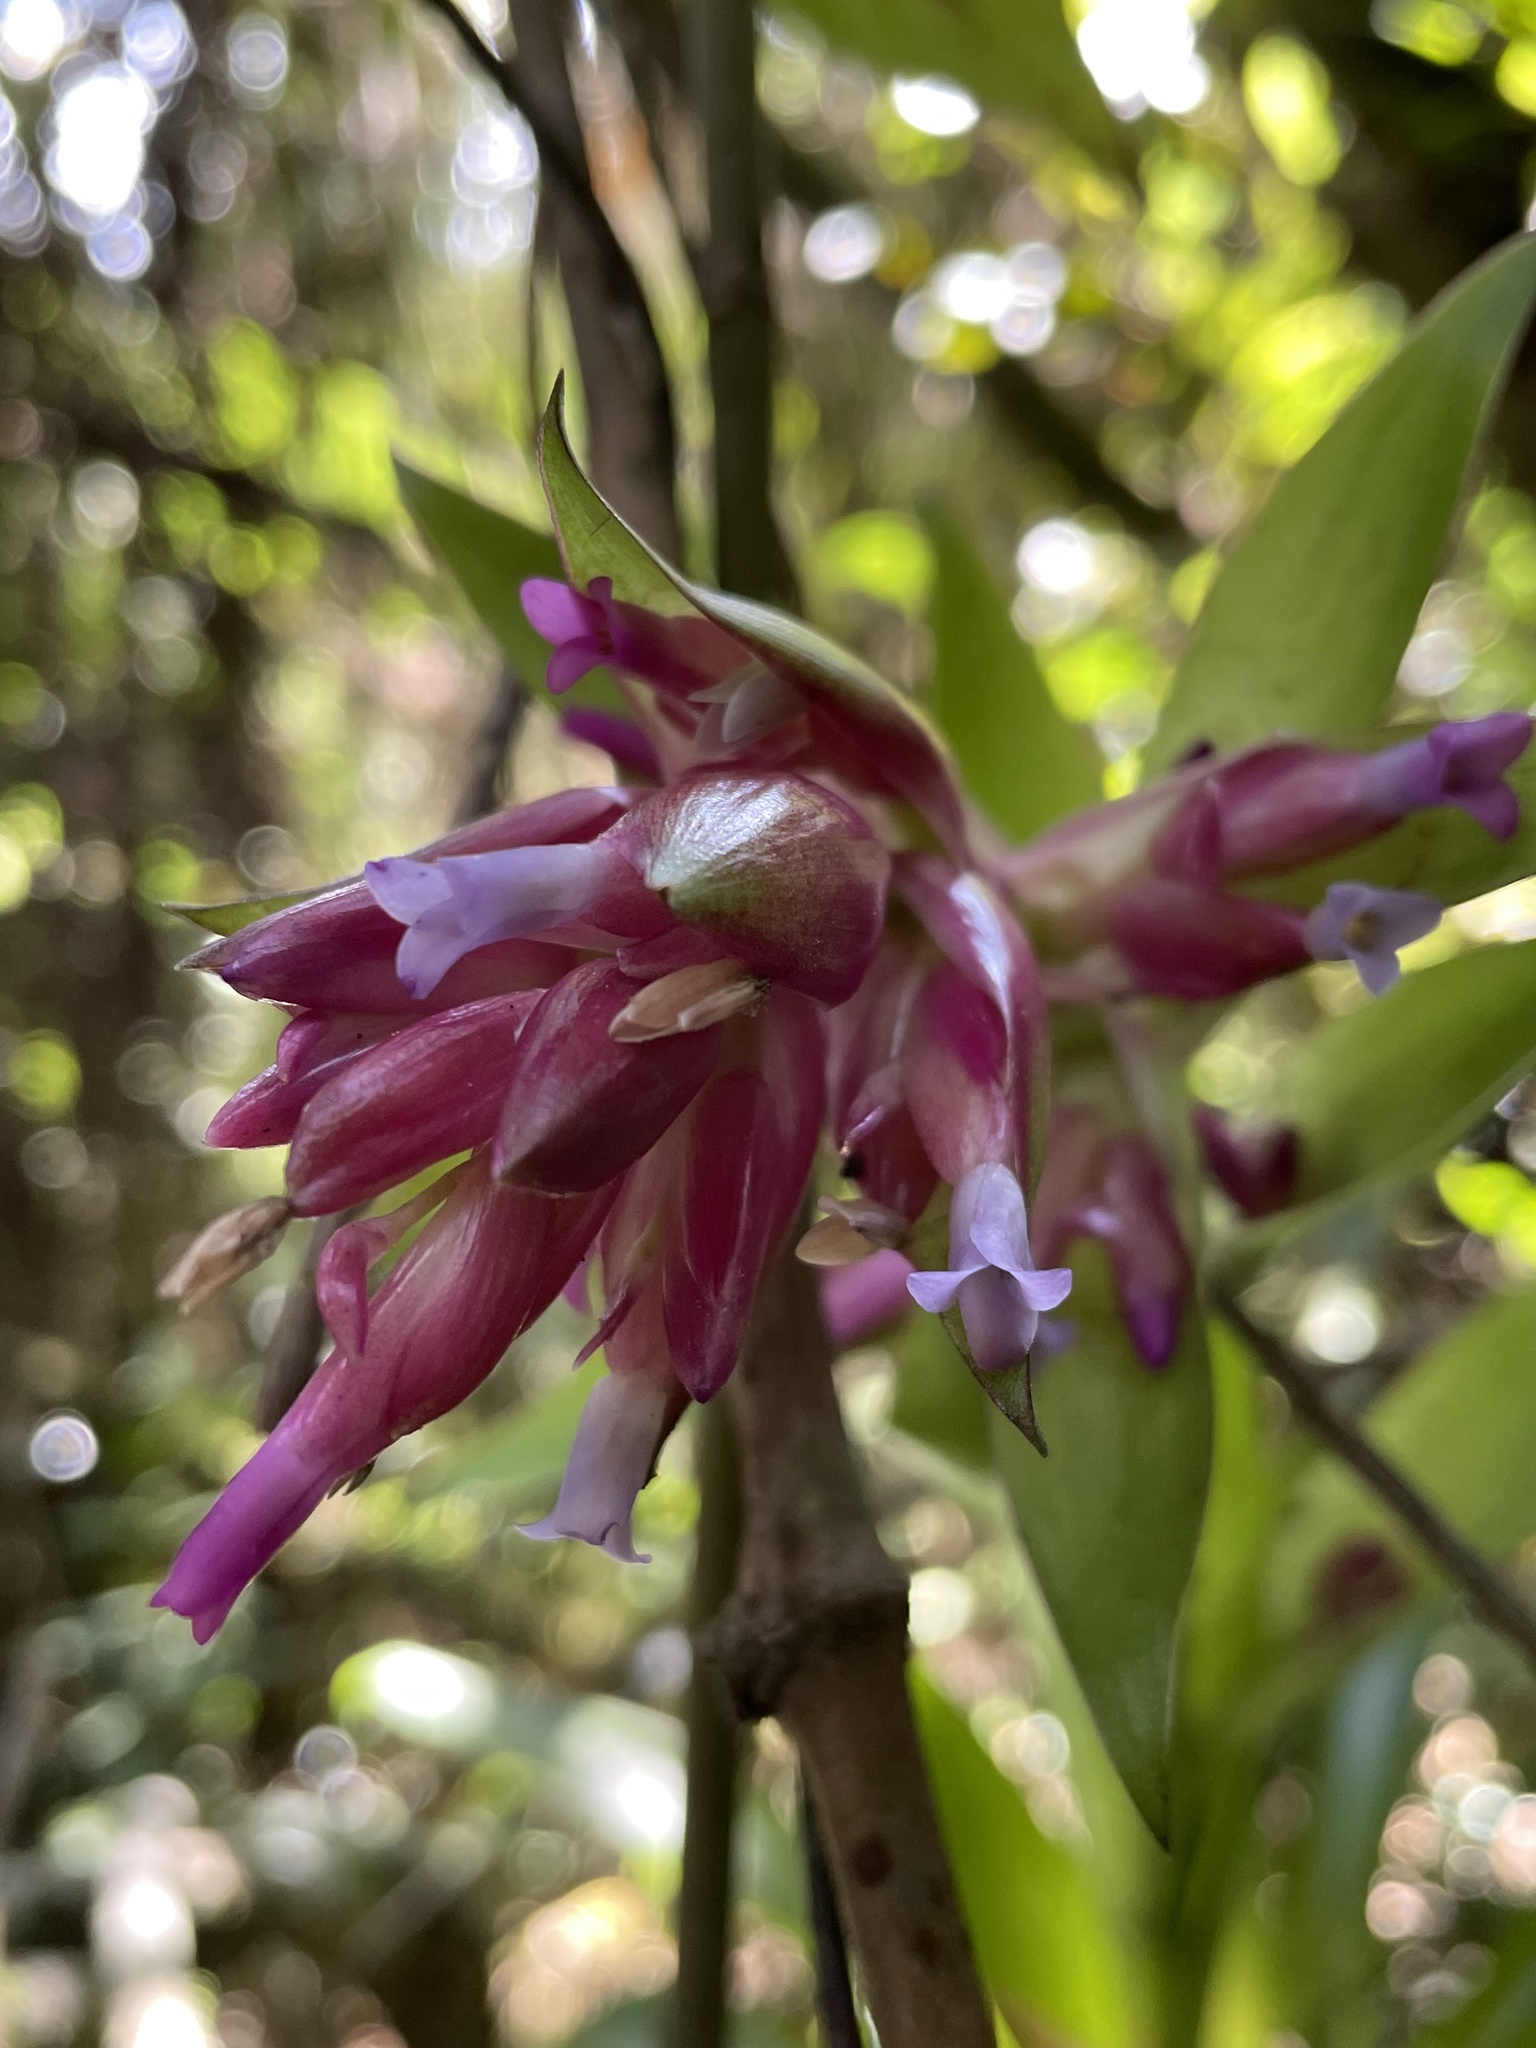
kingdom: Plantae
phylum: Tracheophyta
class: Liliopsida
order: Poales
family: Bromeliaceae
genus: Tillandsia
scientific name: Tillandsia biflora
